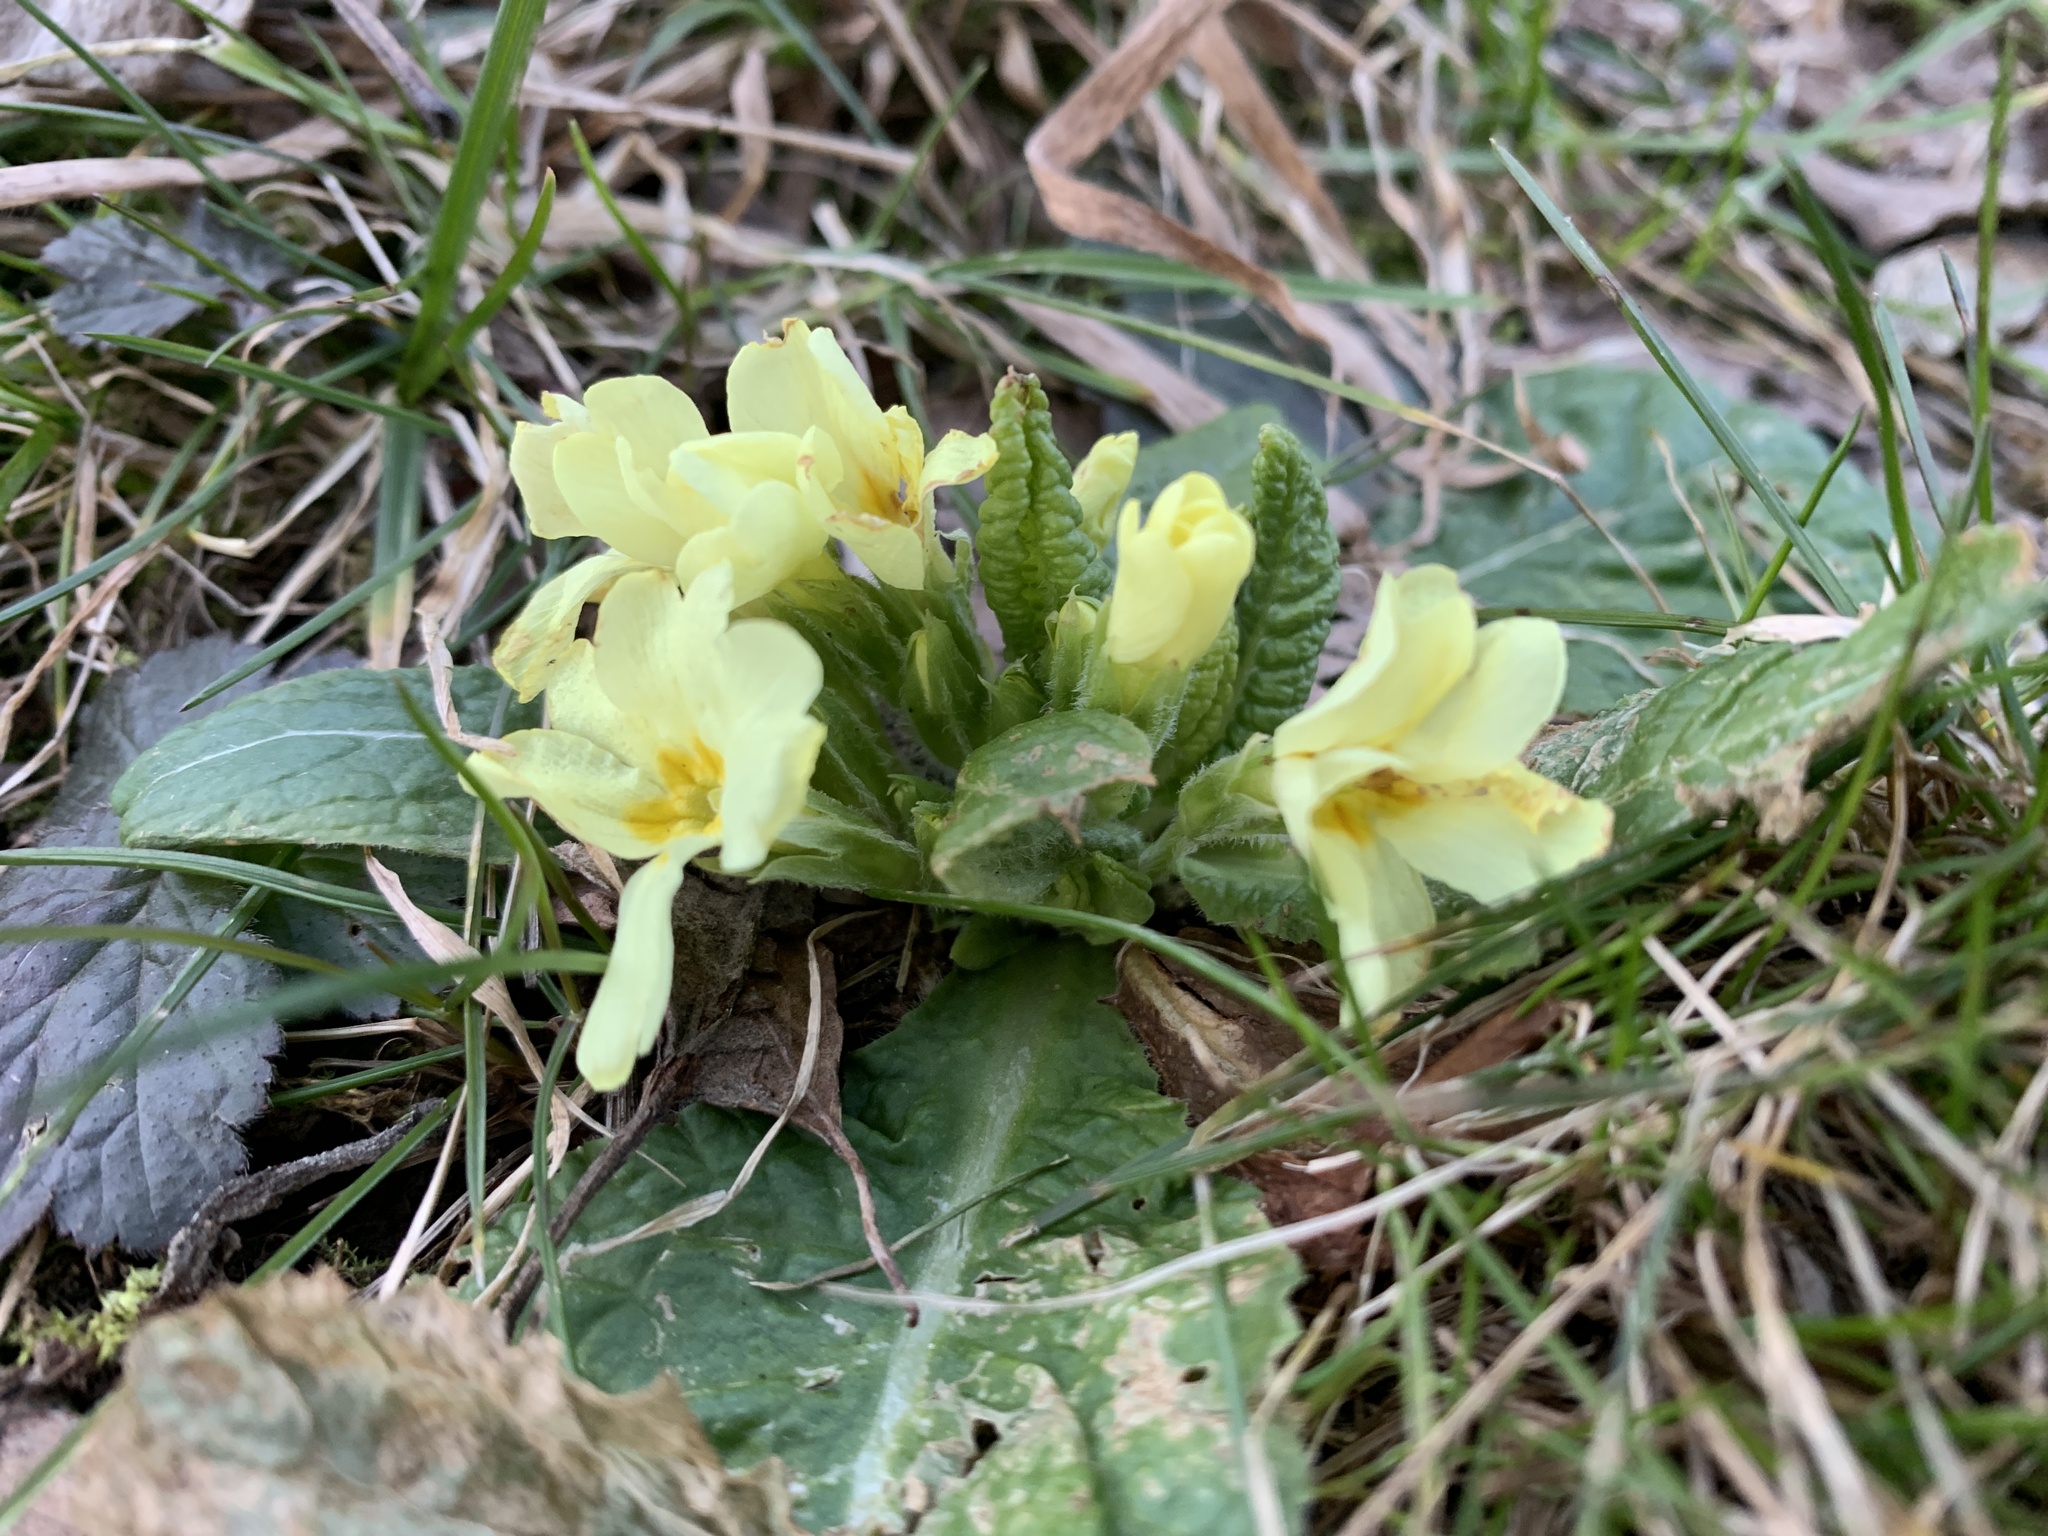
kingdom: Plantae
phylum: Tracheophyta
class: Magnoliopsida
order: Ericales
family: Primulaceae
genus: Primula
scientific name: Primula vulgaris
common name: Primrose
